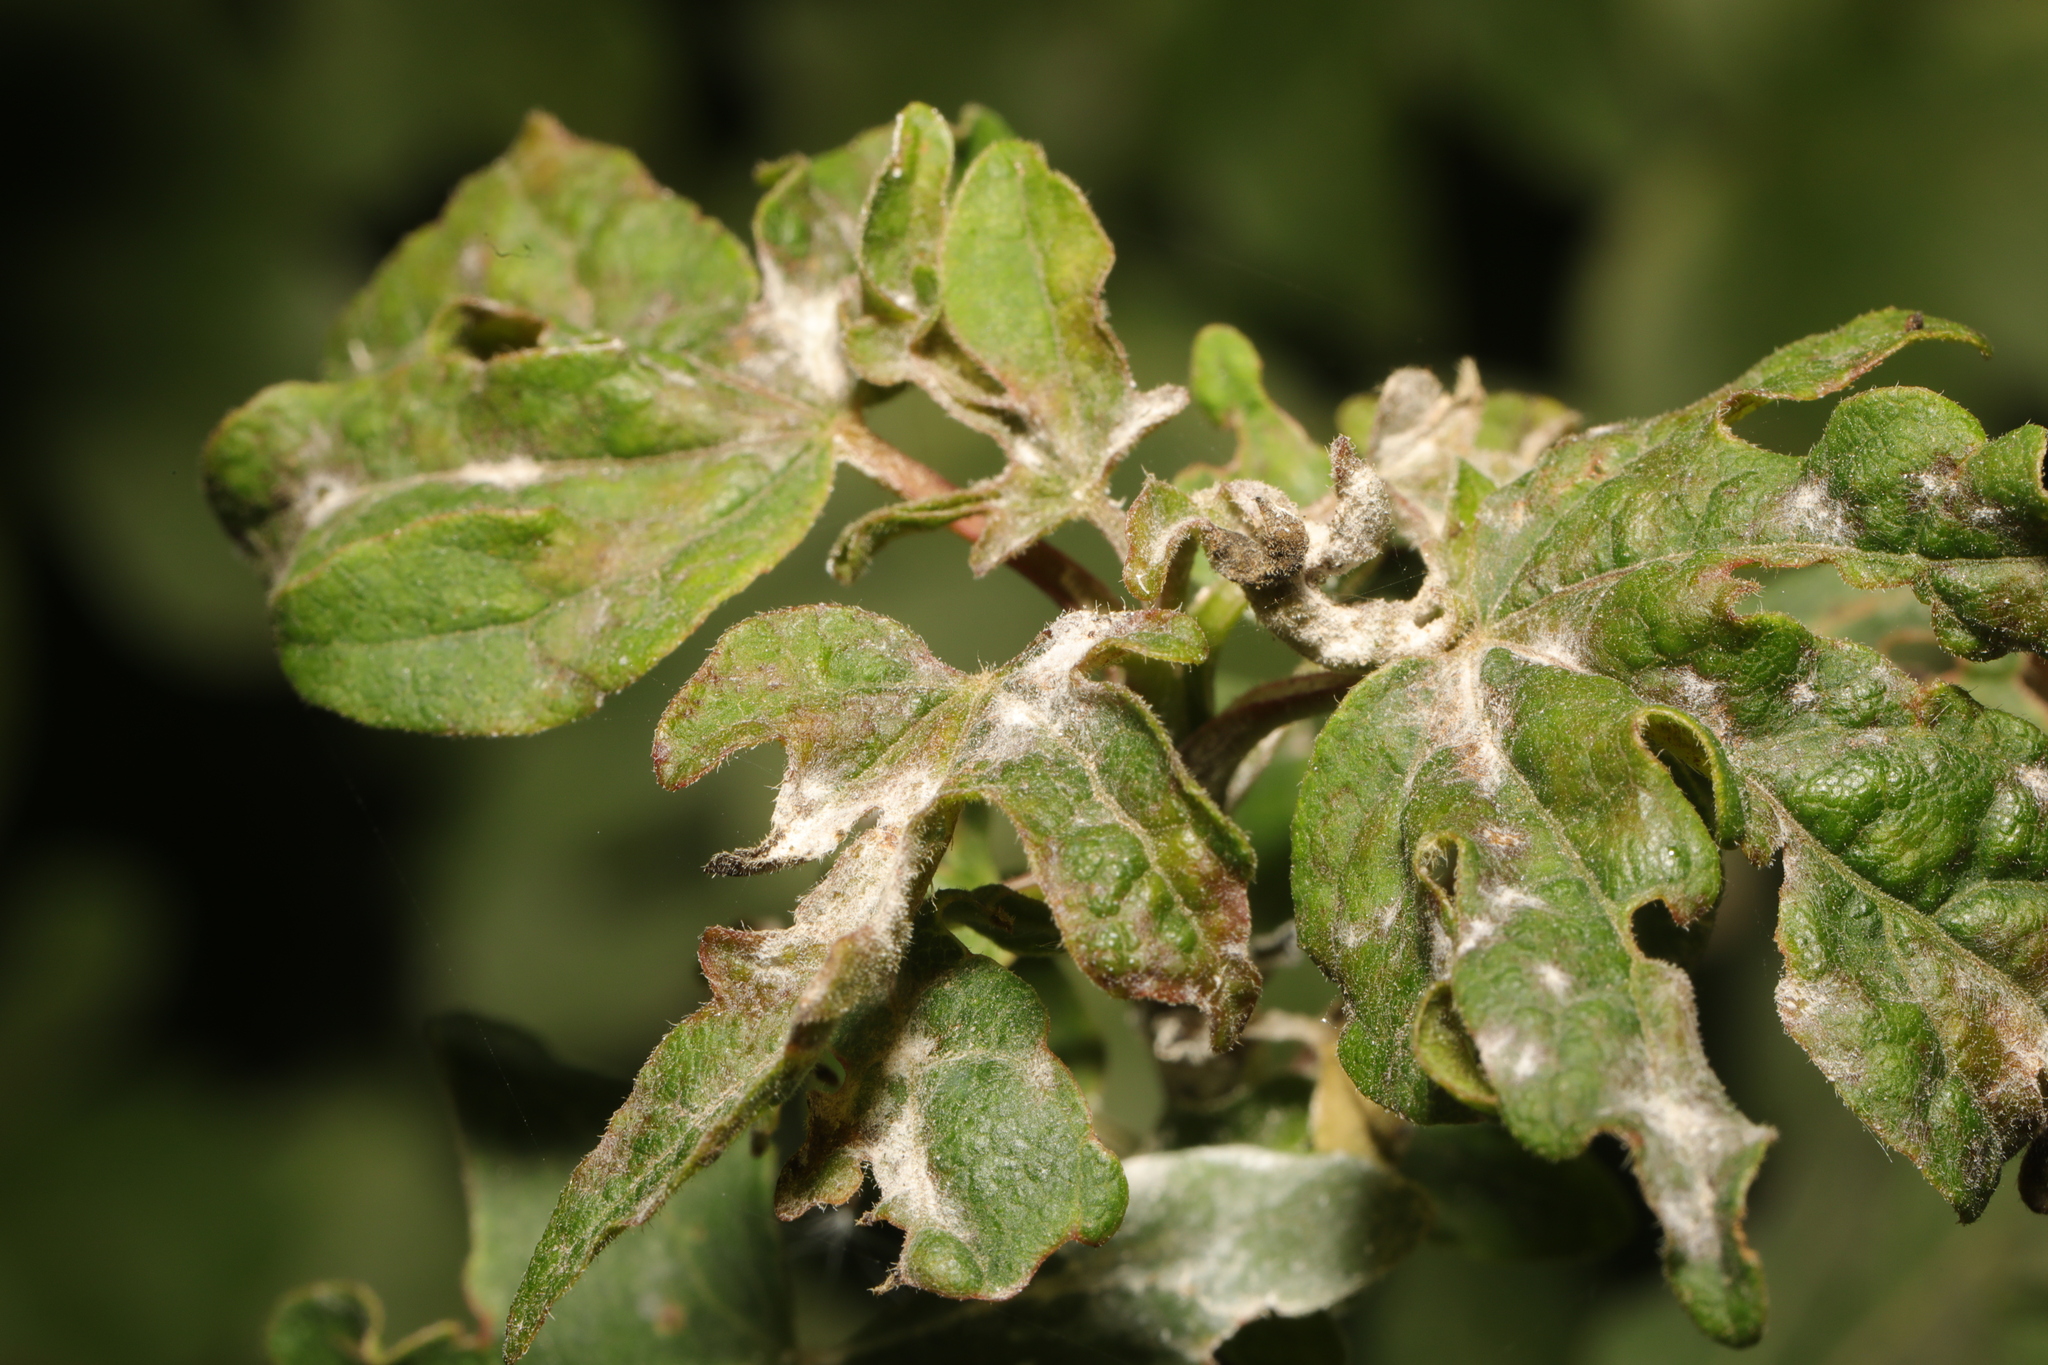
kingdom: Fungi
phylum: Ascomycota
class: Leotiomycetes
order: Helotiales
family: Erysiphaceae
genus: Sawadaea
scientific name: Sawadaea bicornis
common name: Maple mildew
